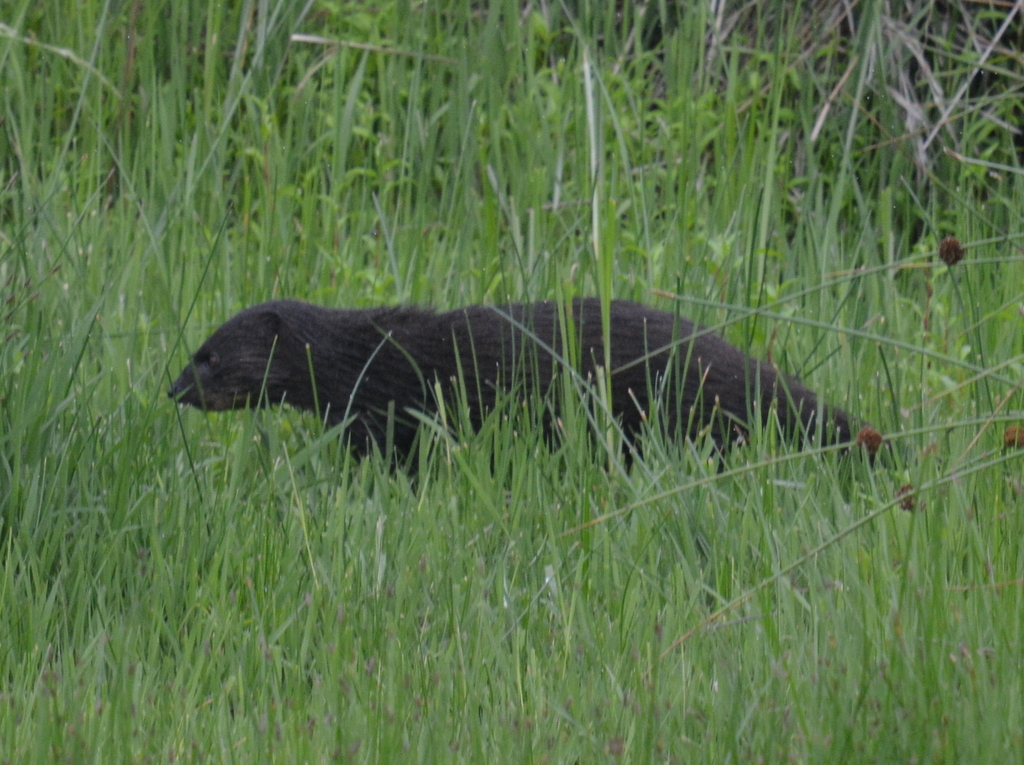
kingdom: Animalia
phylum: Chordata
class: Mammalia
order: Carnivora
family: Herpestidae
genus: Atilax
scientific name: Atilax paludinosus
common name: Marsh mongoose
